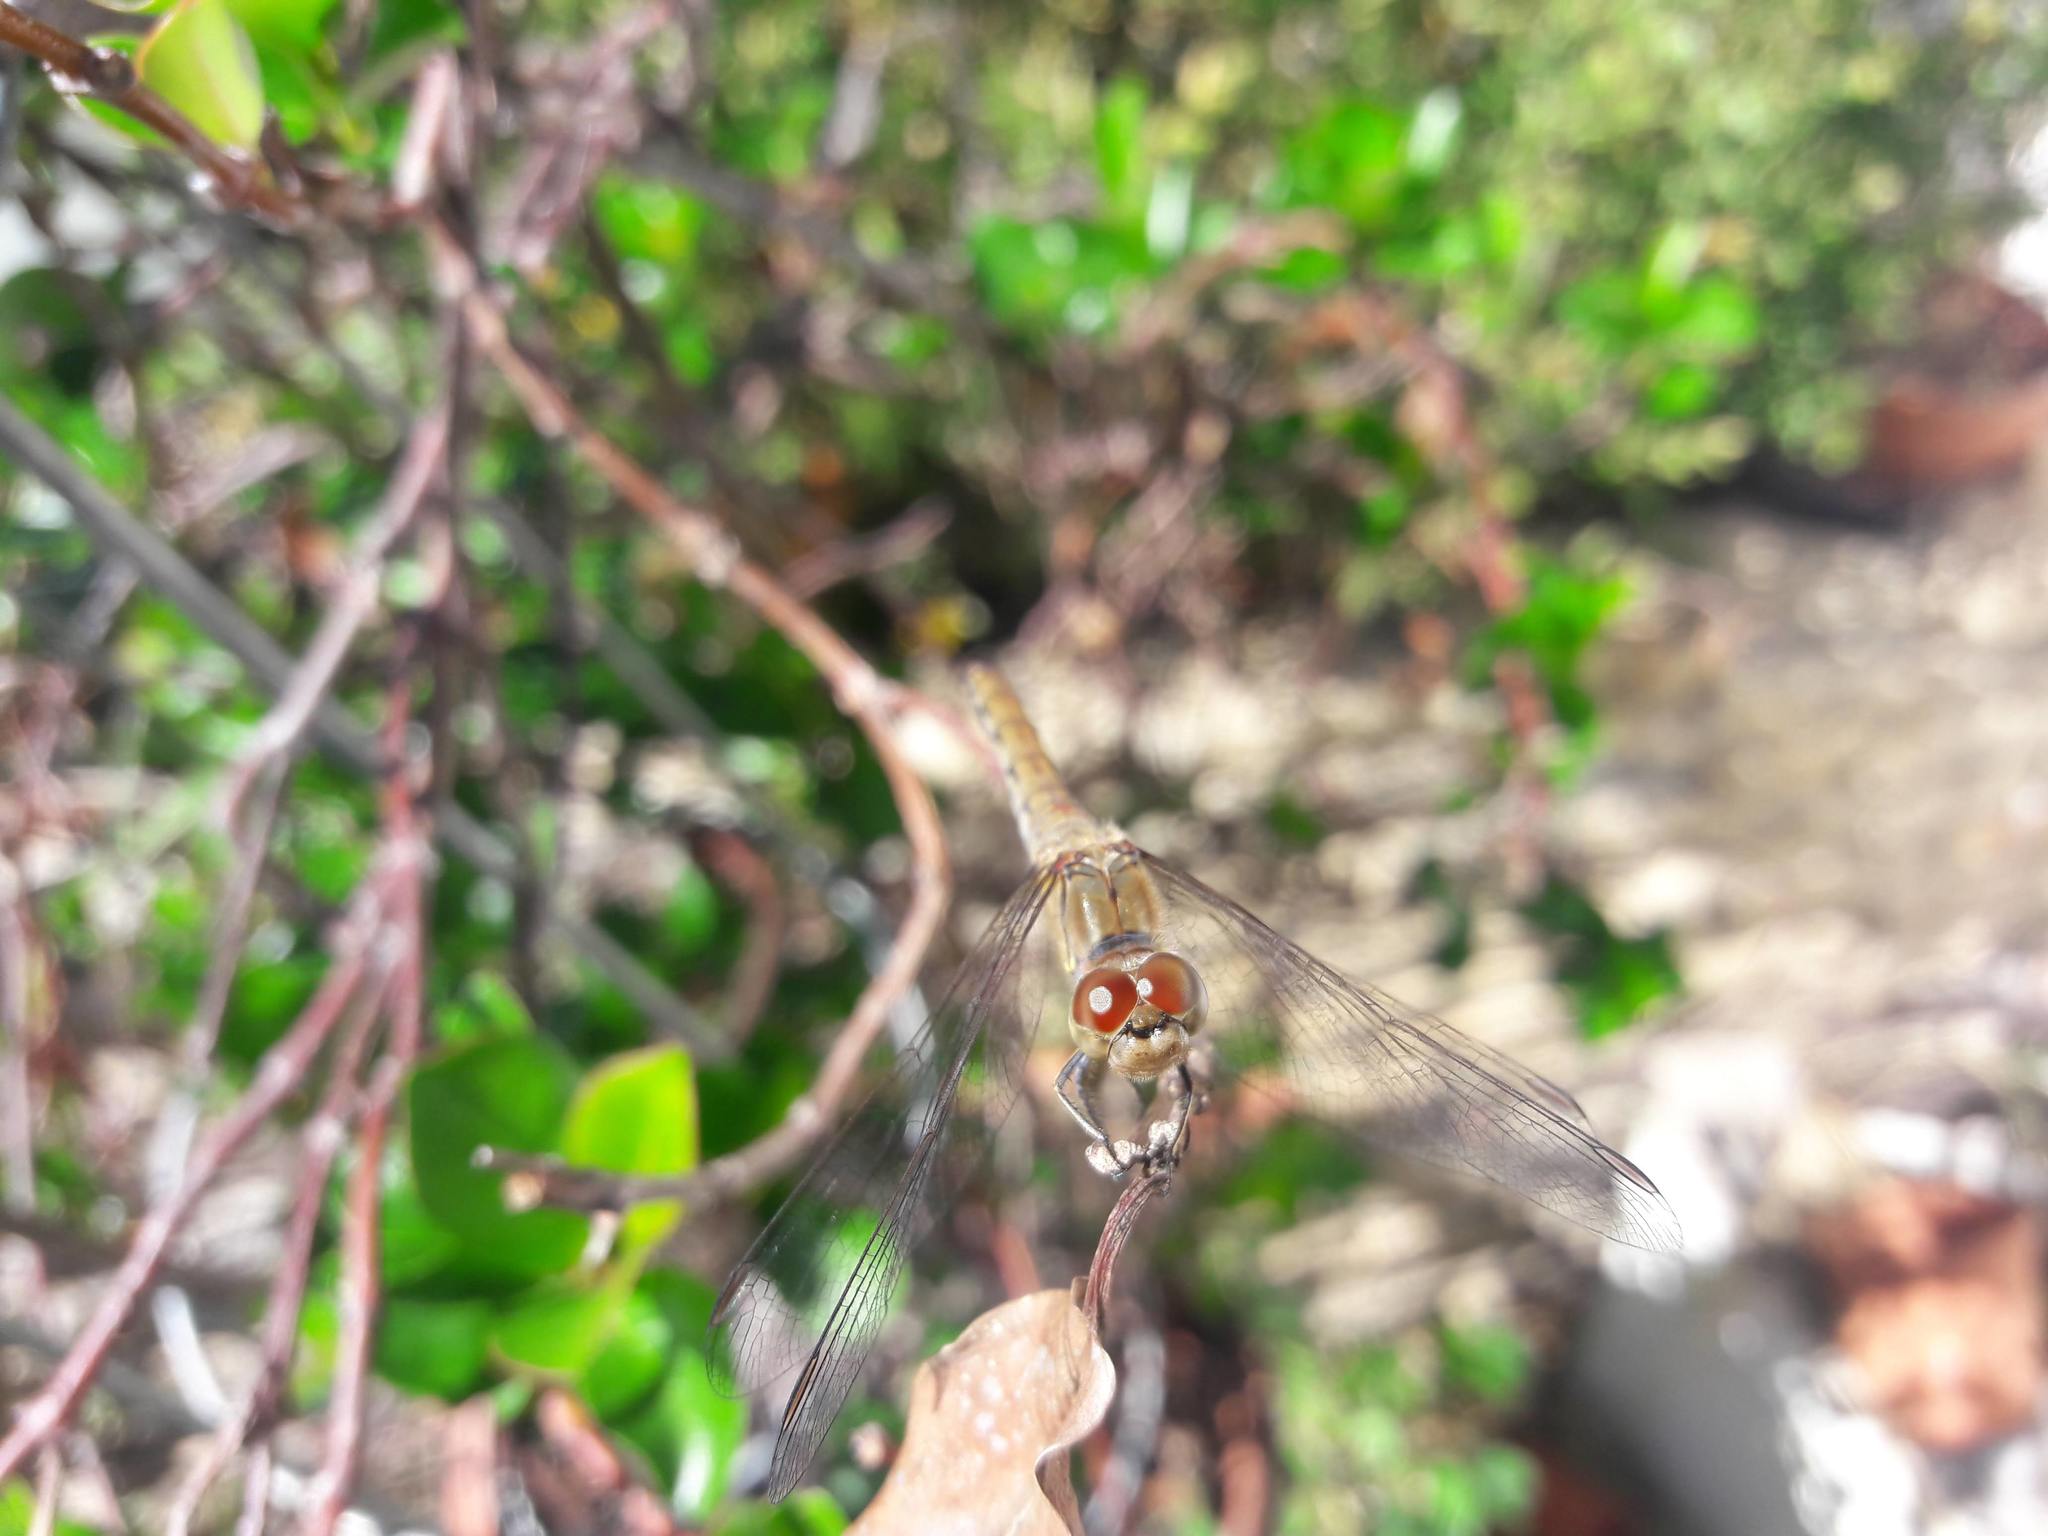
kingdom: Animalia
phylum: Arthropoda
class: Insecta
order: Odonata
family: Libellulidae
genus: Sympetrum
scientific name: Sympetrum striolatum
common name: Common darter
